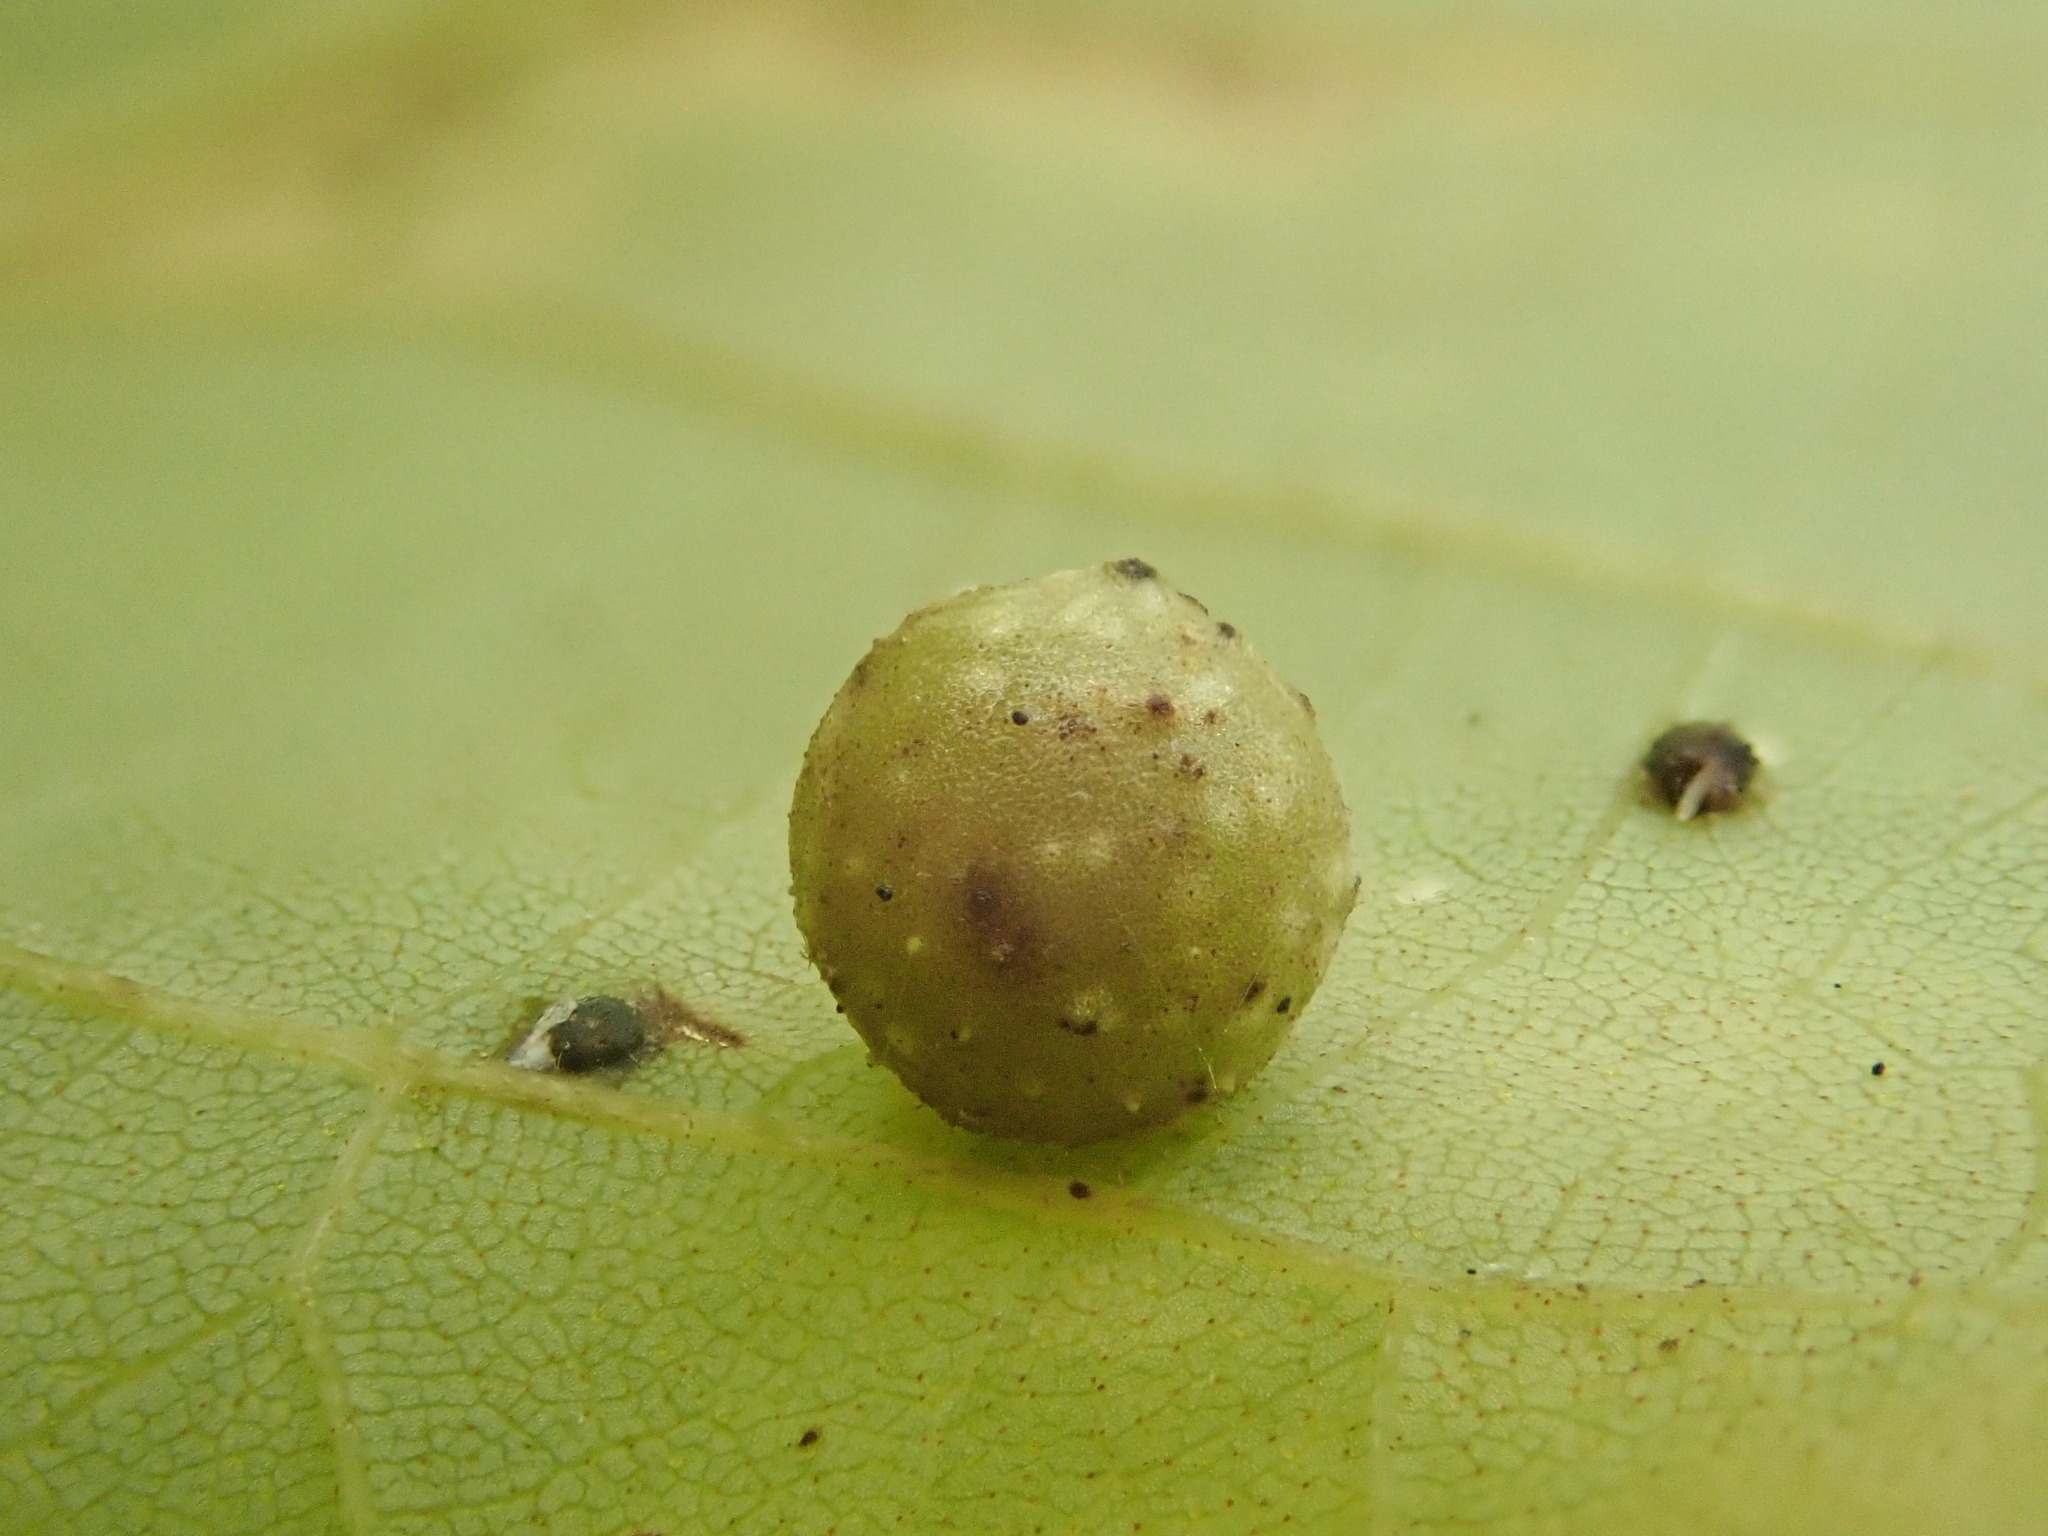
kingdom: Animalia
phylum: Arthropoda
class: Insecta
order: Diptera
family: Cecidomyiidae
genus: Caryomyia
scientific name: Caryomyia tuberculata
